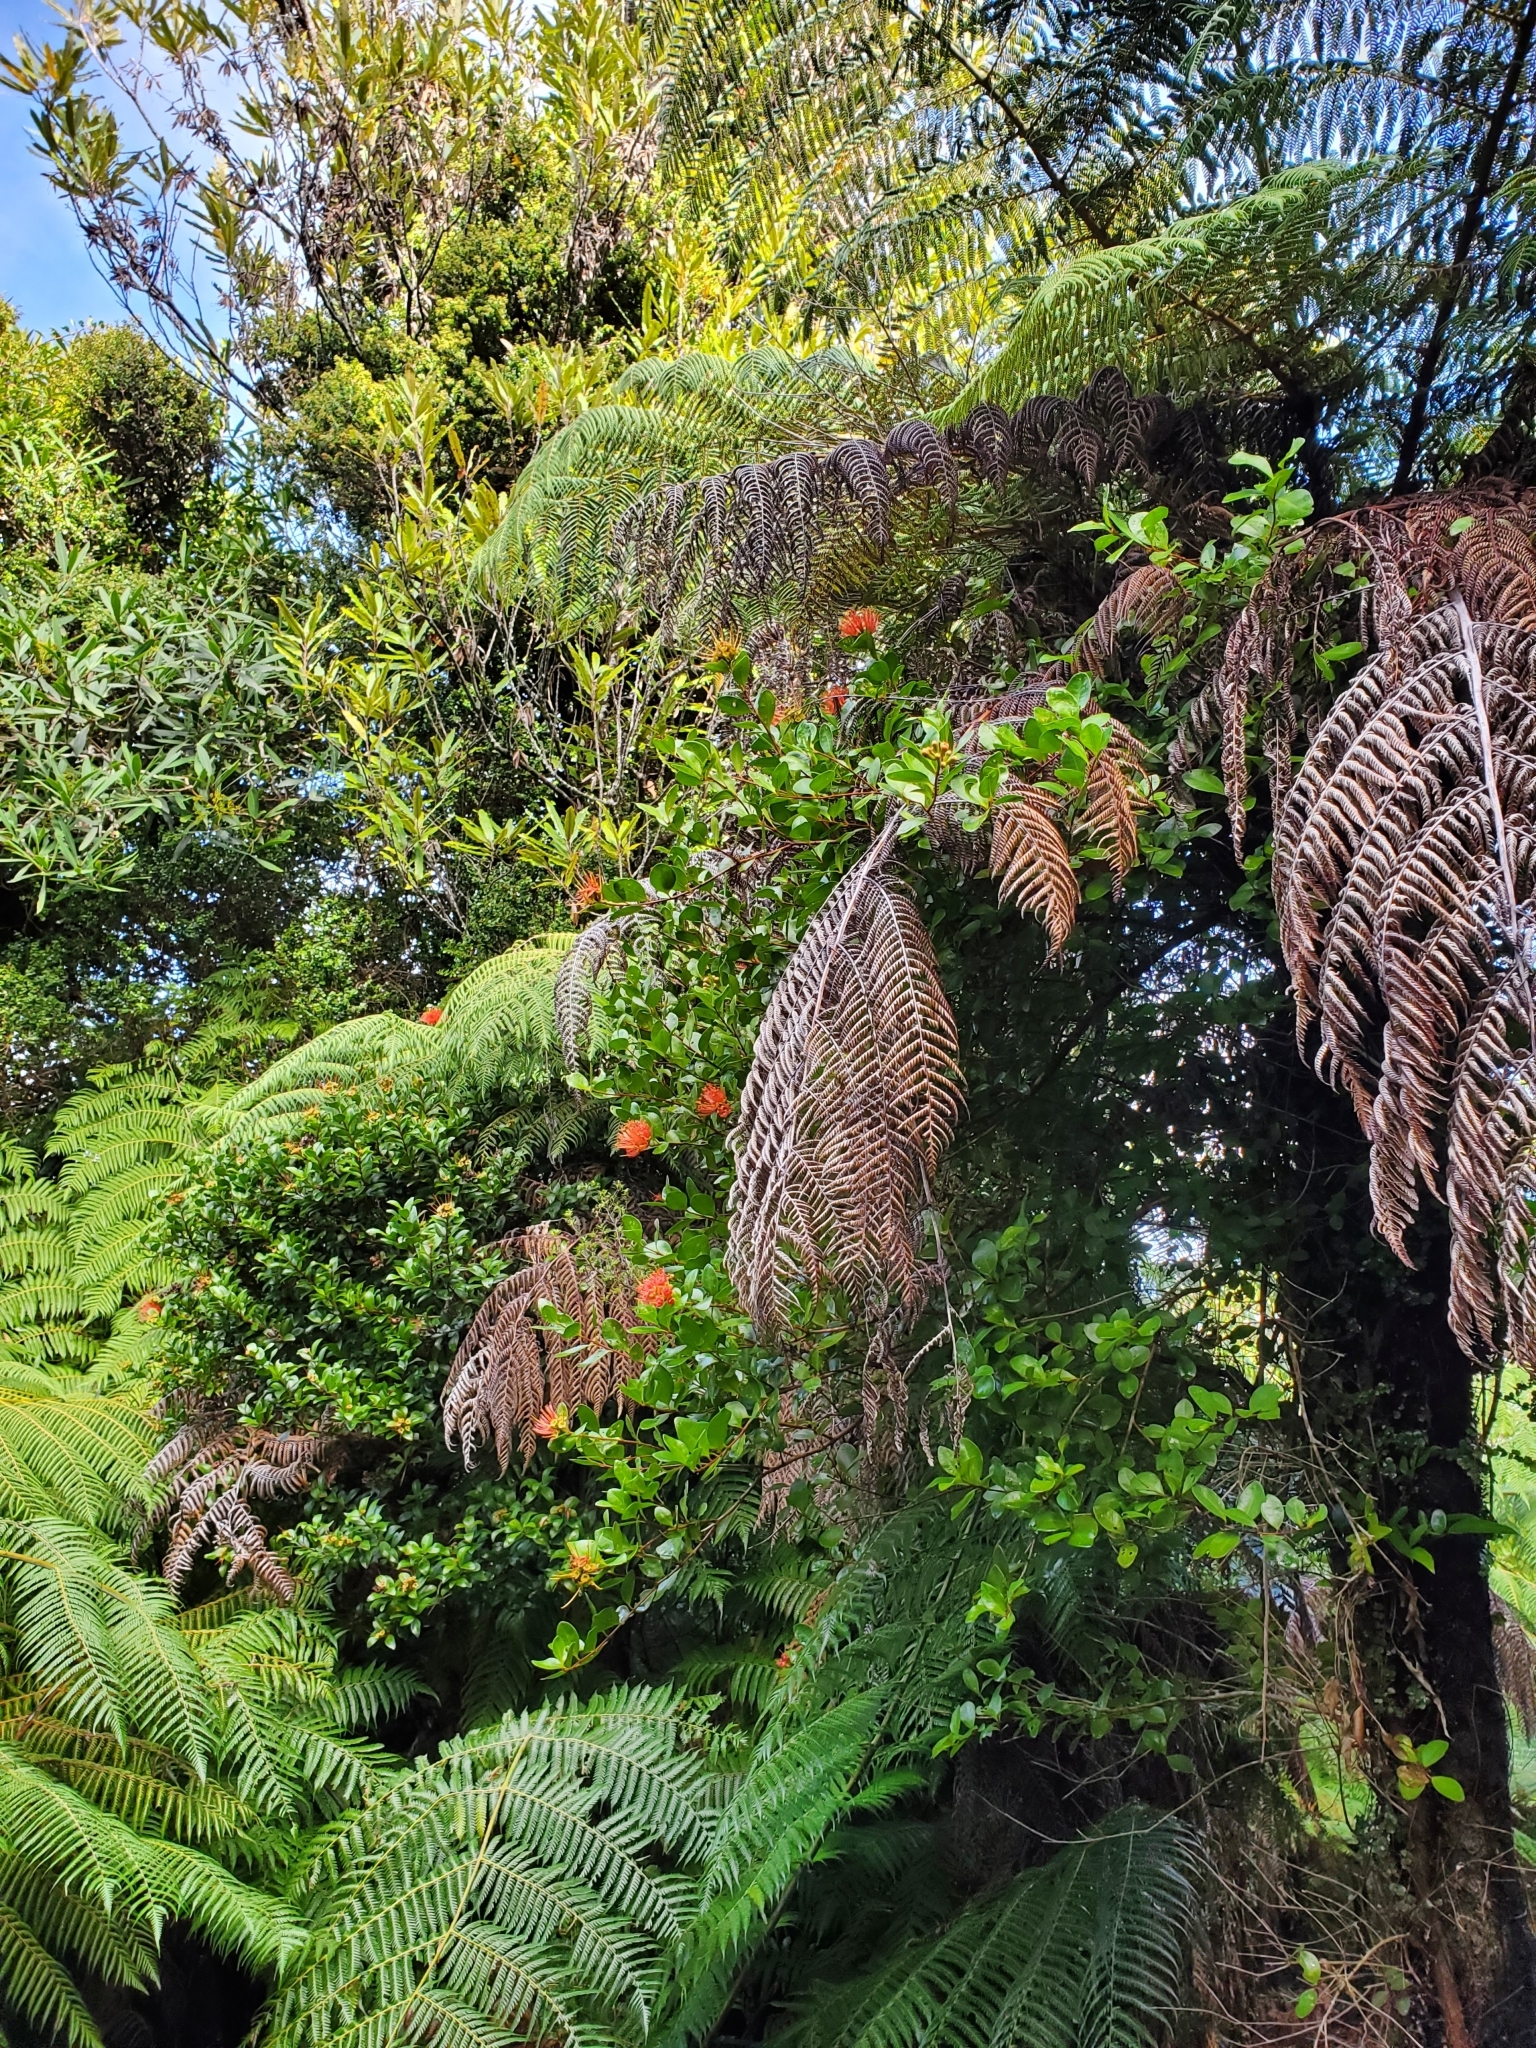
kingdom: Plantae
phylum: Tracheophyta
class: Magnoliopsida
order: Myrtales
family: Myrtaceae
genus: Metrosideros
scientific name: Metrosideros fulgens
